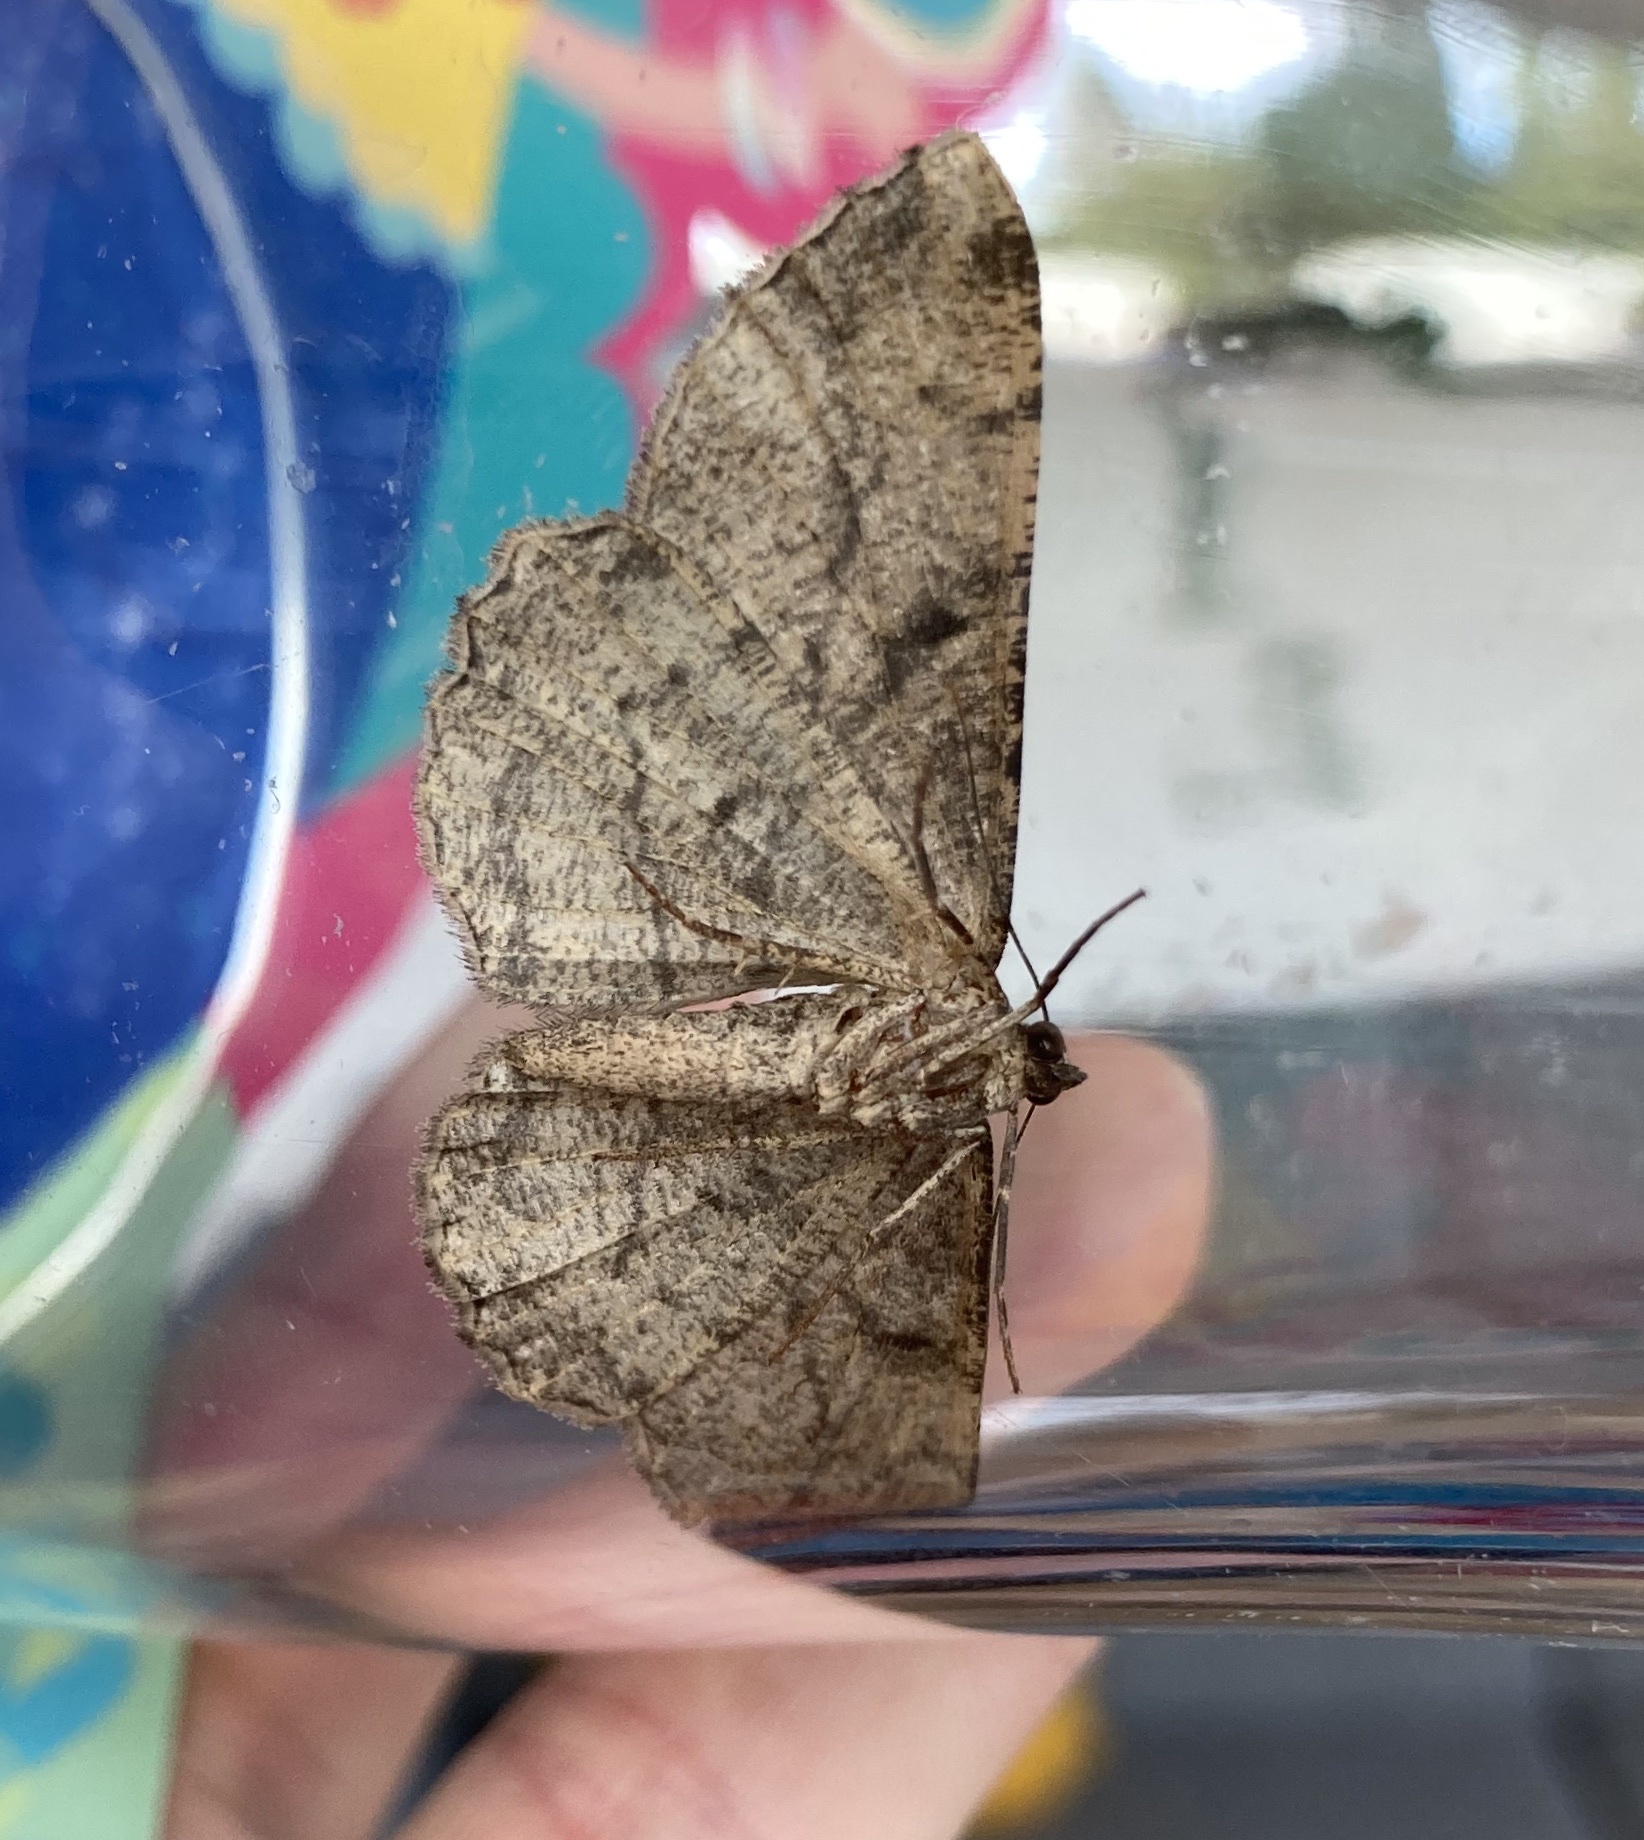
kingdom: Animalia
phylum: Arthropoda
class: Insecta
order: Lepidoptera
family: Geometridae
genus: Peribatodes
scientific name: Peribatodes rhomboidaria
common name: Willow beauty
